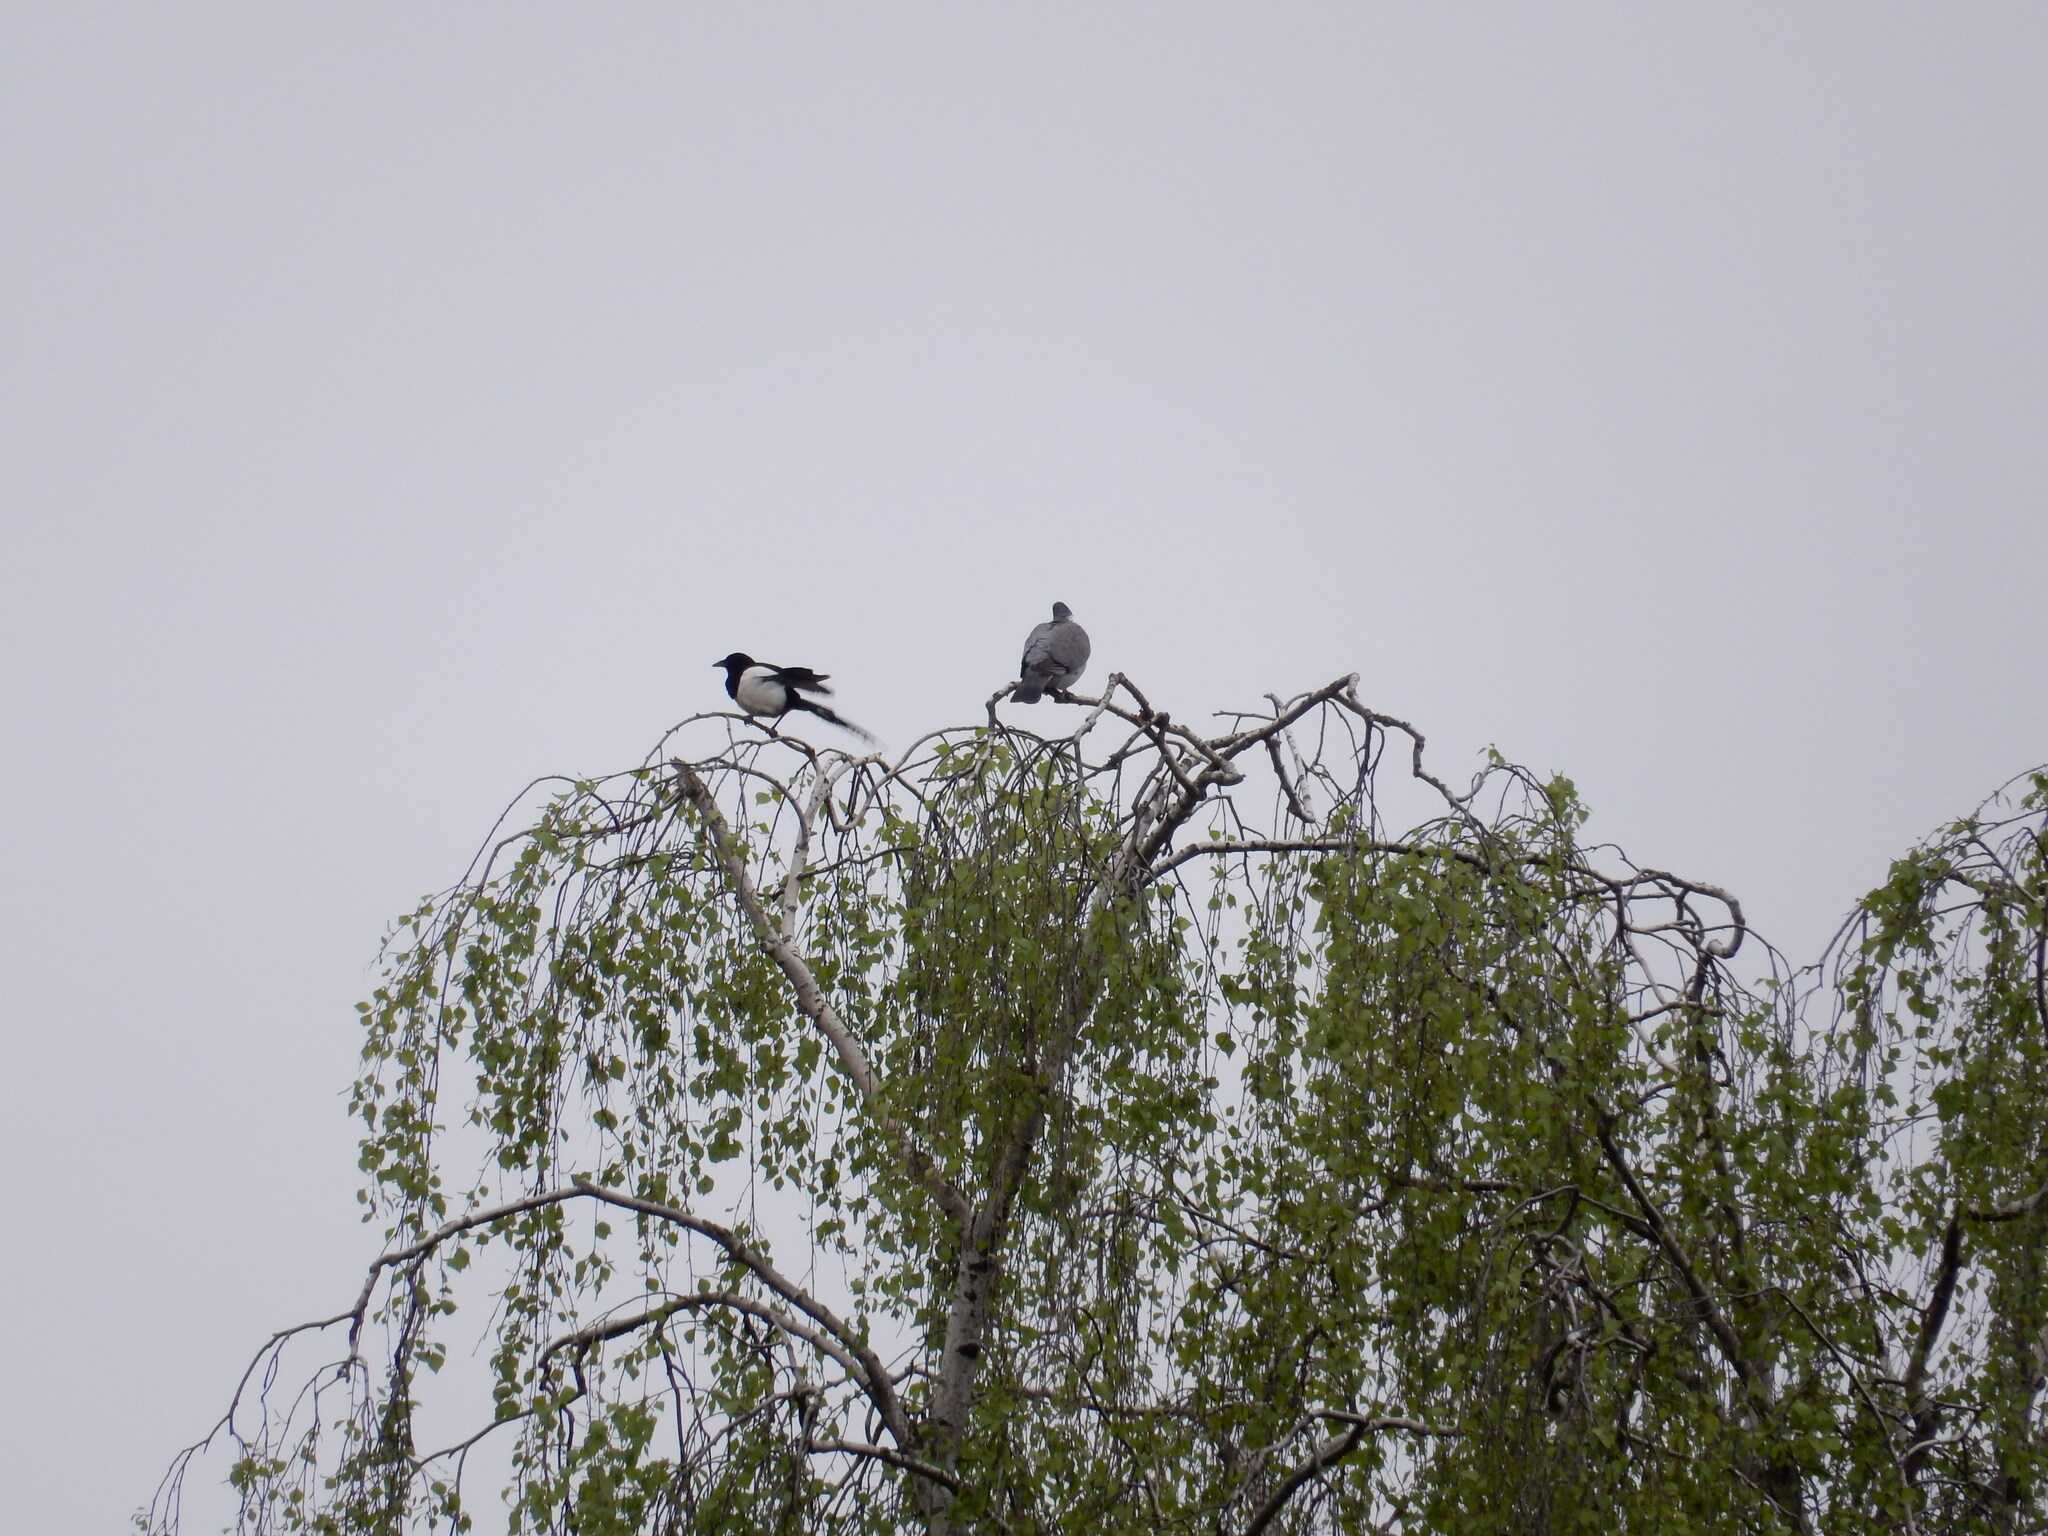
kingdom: Animalia
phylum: Chordata
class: Aves
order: Columbiformes
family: Columbidae
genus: Columba
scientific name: Columba palumbus
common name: Common wood pigeon
